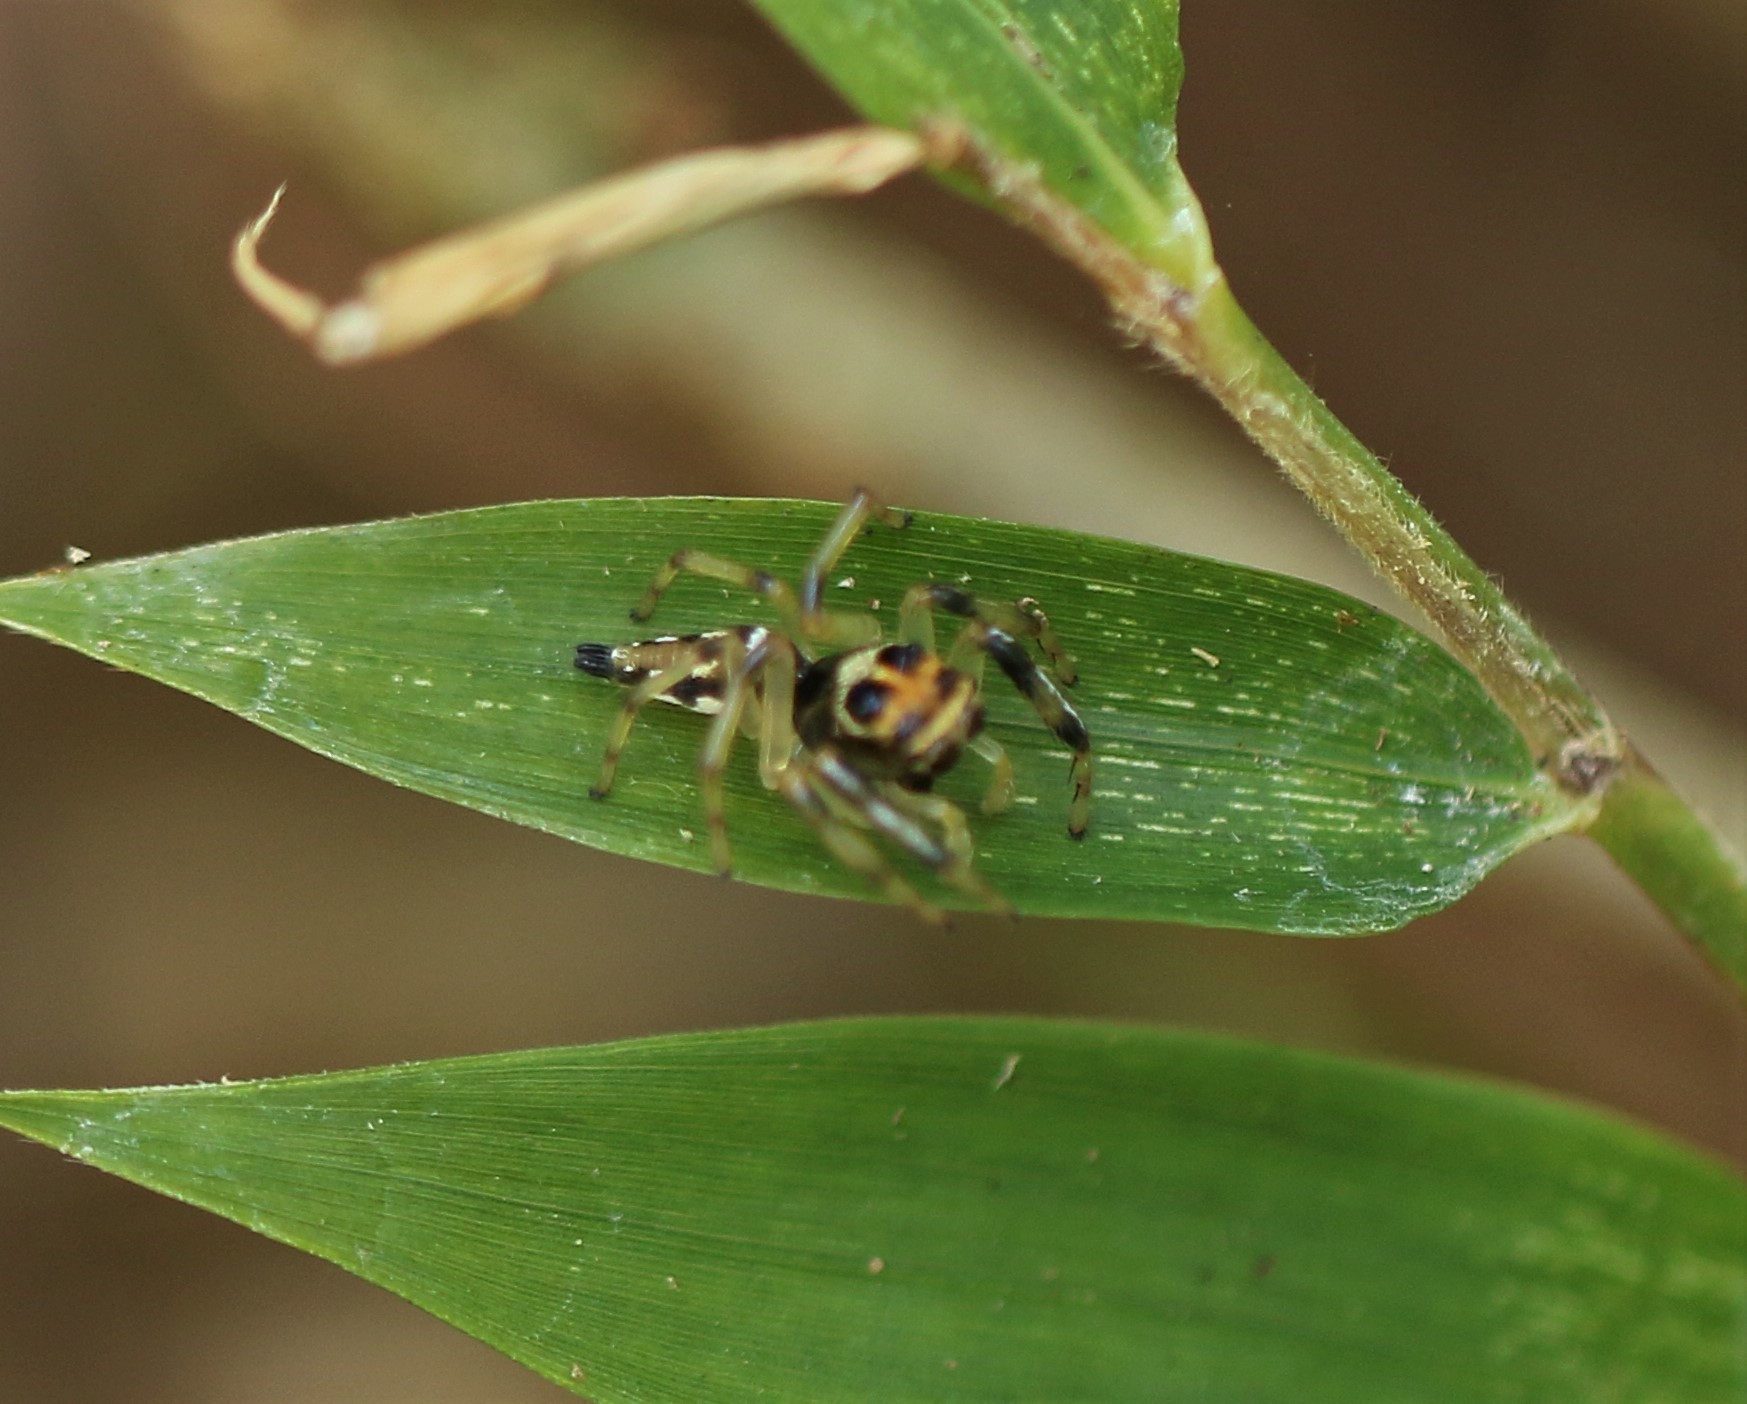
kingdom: Animalia
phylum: Arthropoda
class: Arachnida
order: Araneae
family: Salticidae
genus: Hypaeus
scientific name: Hypaeus benignus
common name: Jumping spiders
